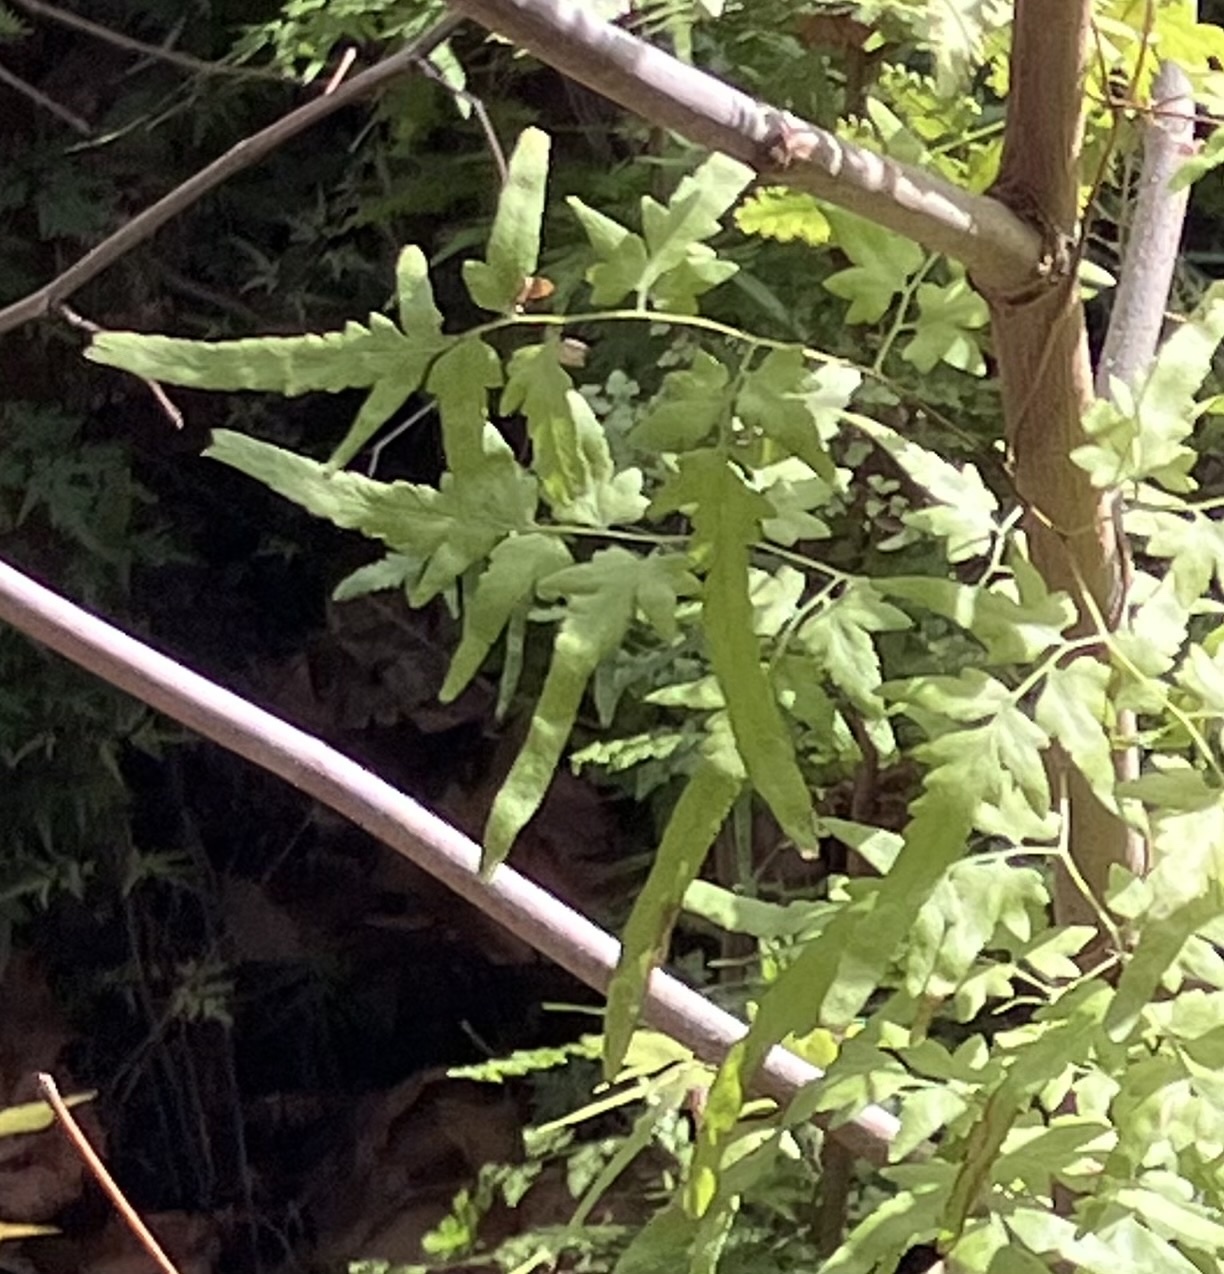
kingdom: Plantae
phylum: Tracheophyta
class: Polypodiopsida
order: Schizaeales
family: Lygodiaceae
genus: Lygodium
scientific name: Lygodium japonicum
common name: Japanese climbing fern
